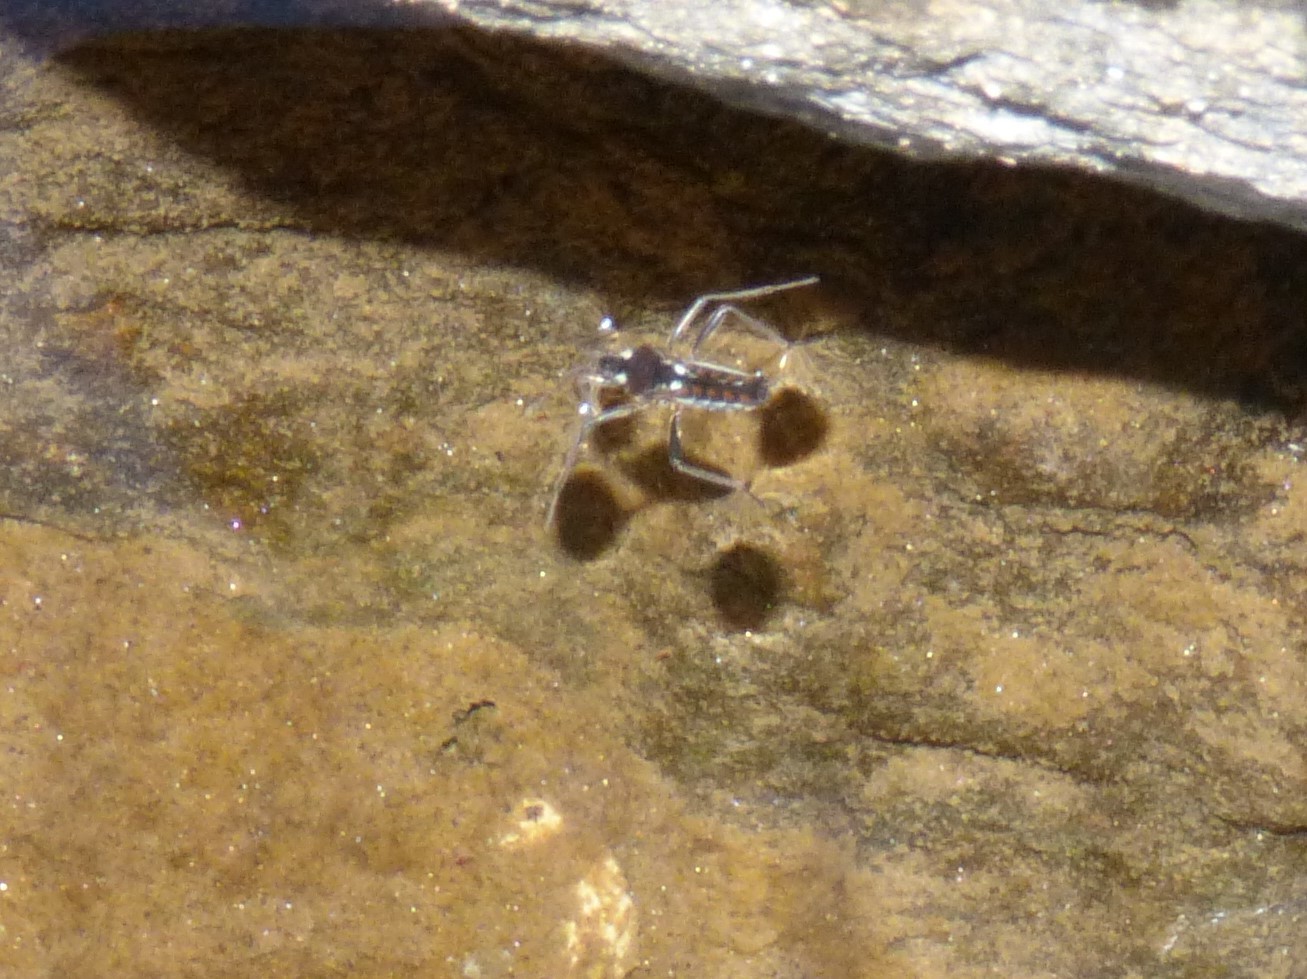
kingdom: Animalia
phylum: Arthropoda
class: Insecta
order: Hemiptera
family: Veliidae
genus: Velia
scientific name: Velia gridellii
